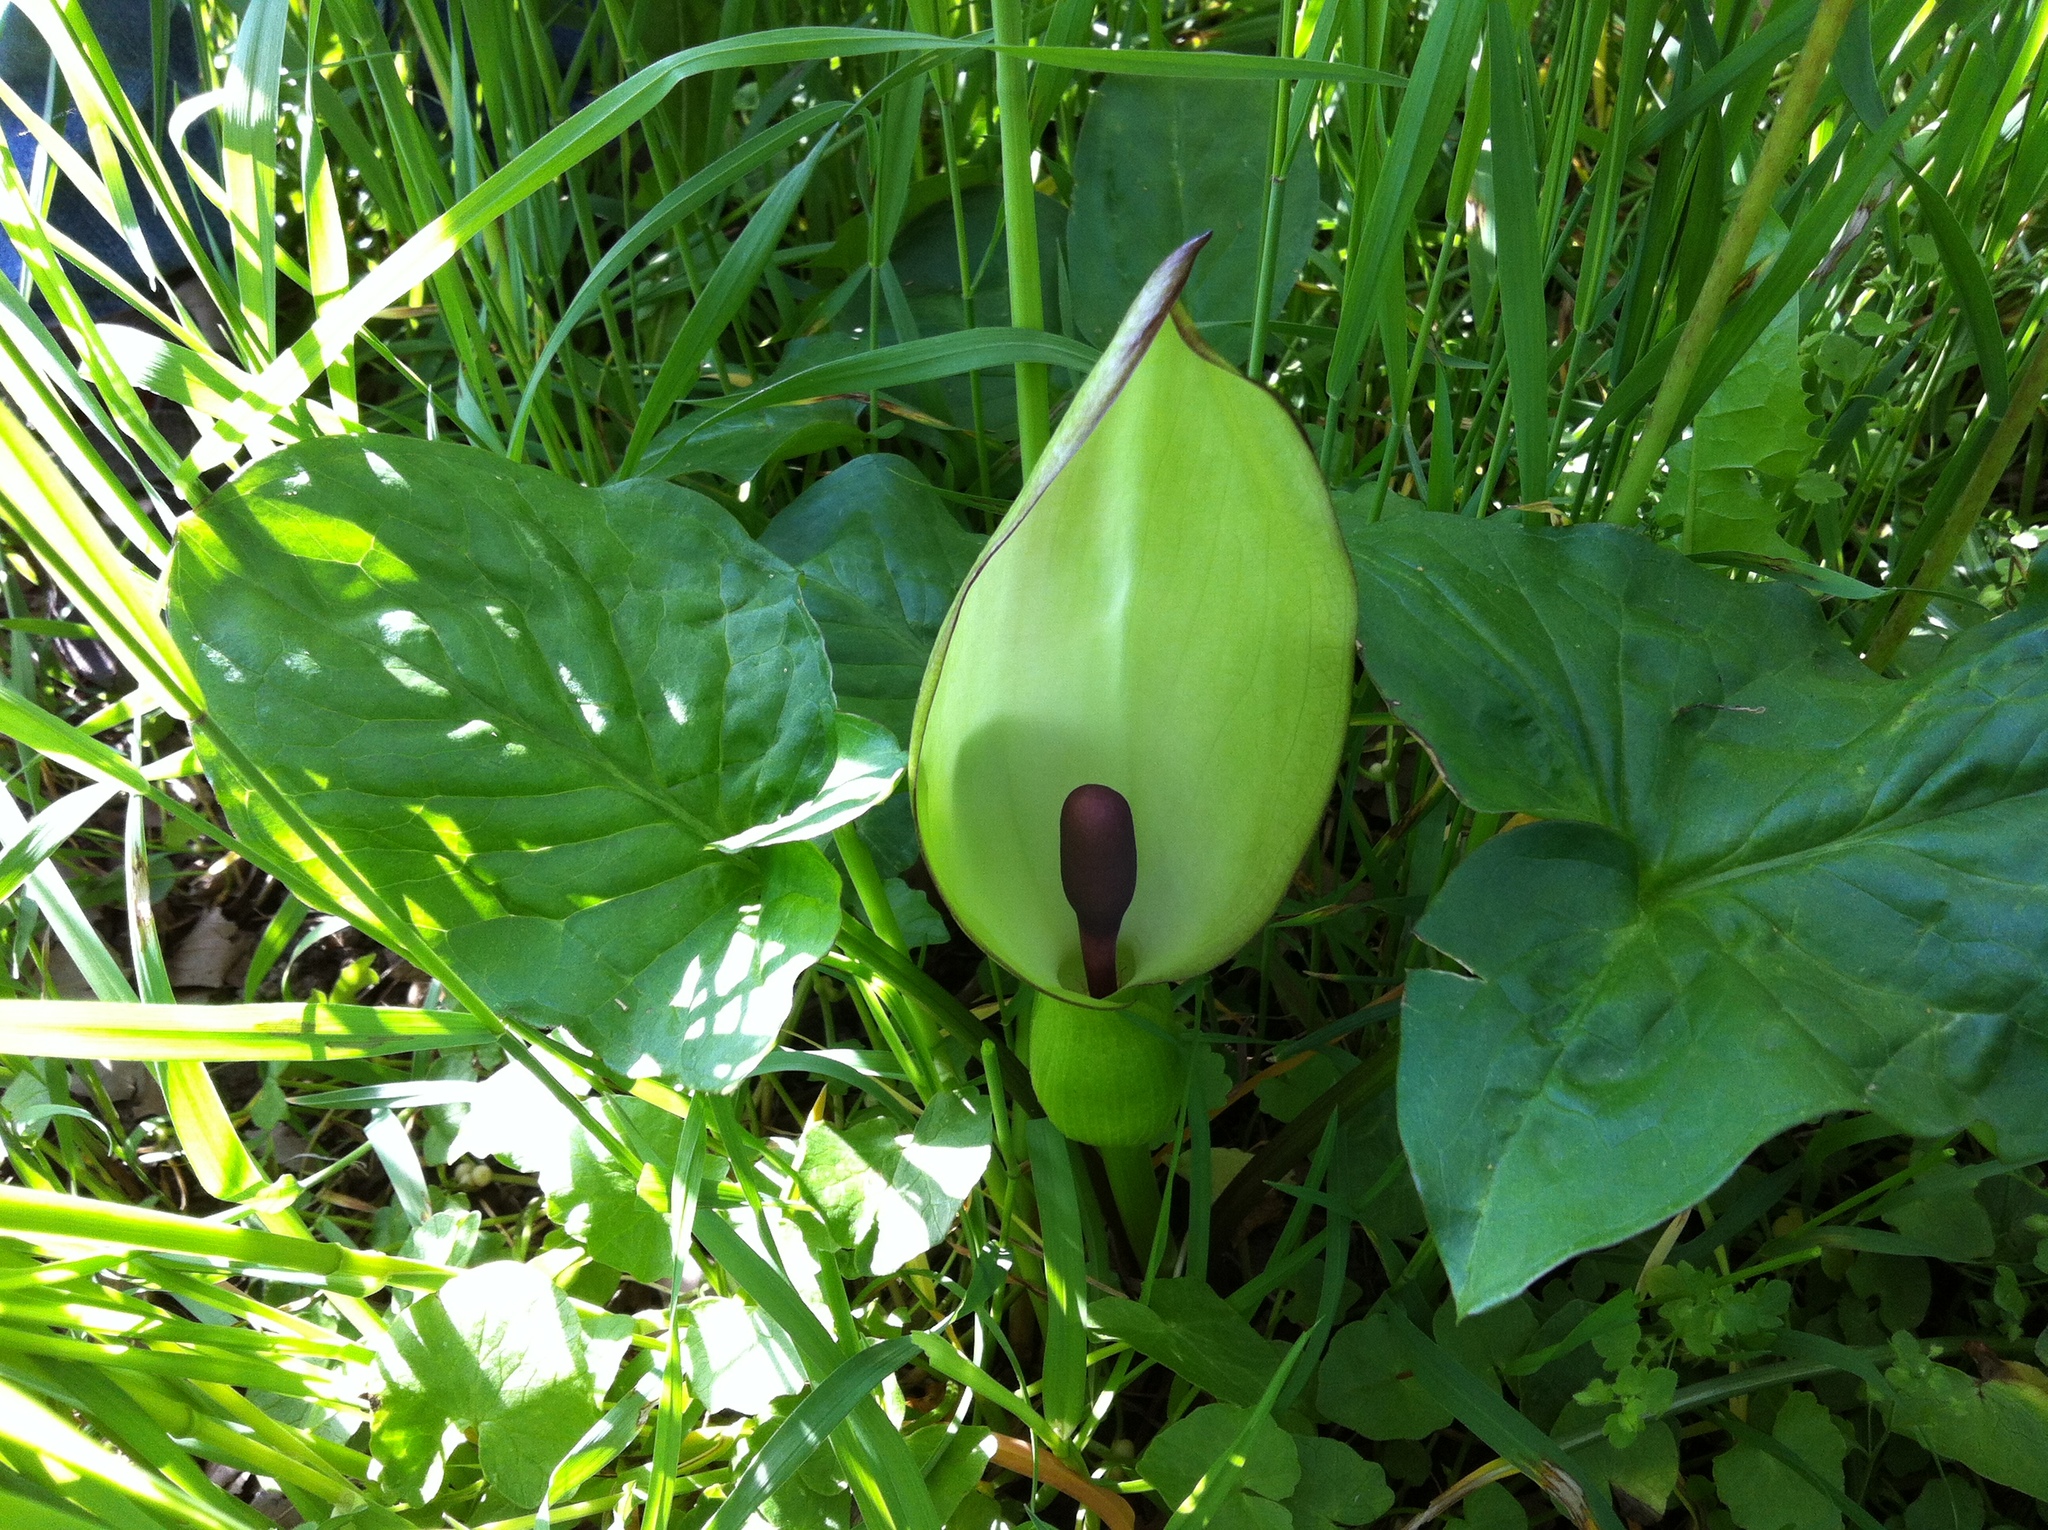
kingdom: Plantae
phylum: Tracheophyta
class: Liliopsida
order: Alismatales
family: Araceae
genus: Arum
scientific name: Arum maculatum
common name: Lords-and-ladies
